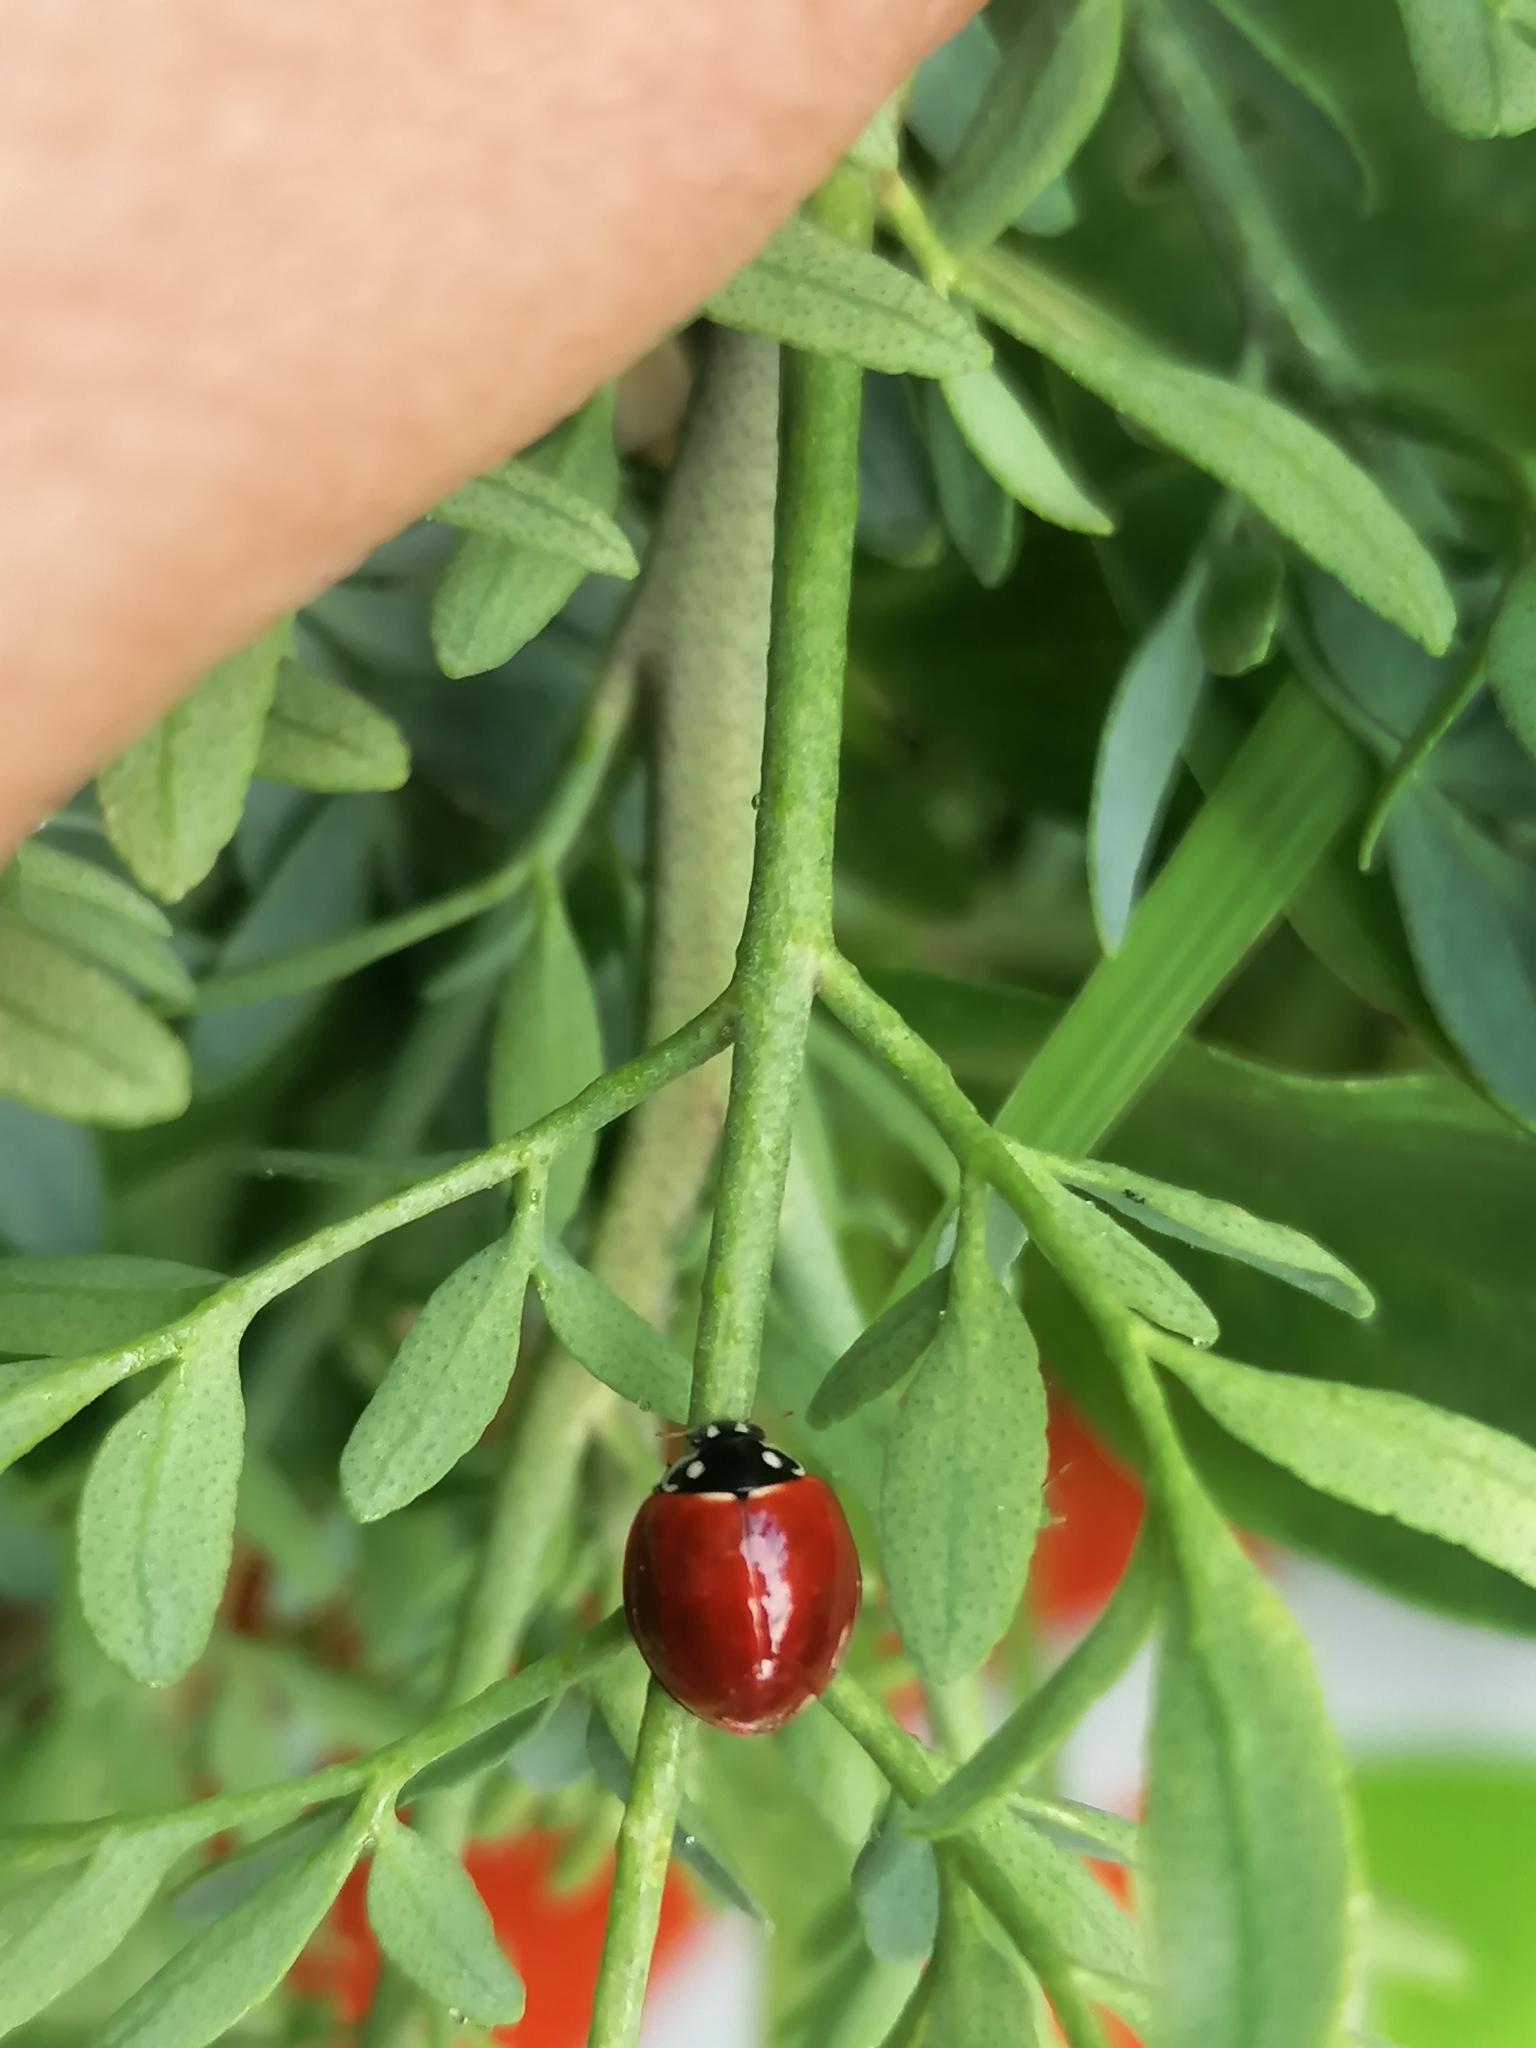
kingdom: Animalia
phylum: Arthropoda
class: Insecta
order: Coleoptera
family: Coccinellidae
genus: Cycloneda
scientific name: Cycloneda sanguinea
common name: Ladybird beetle
